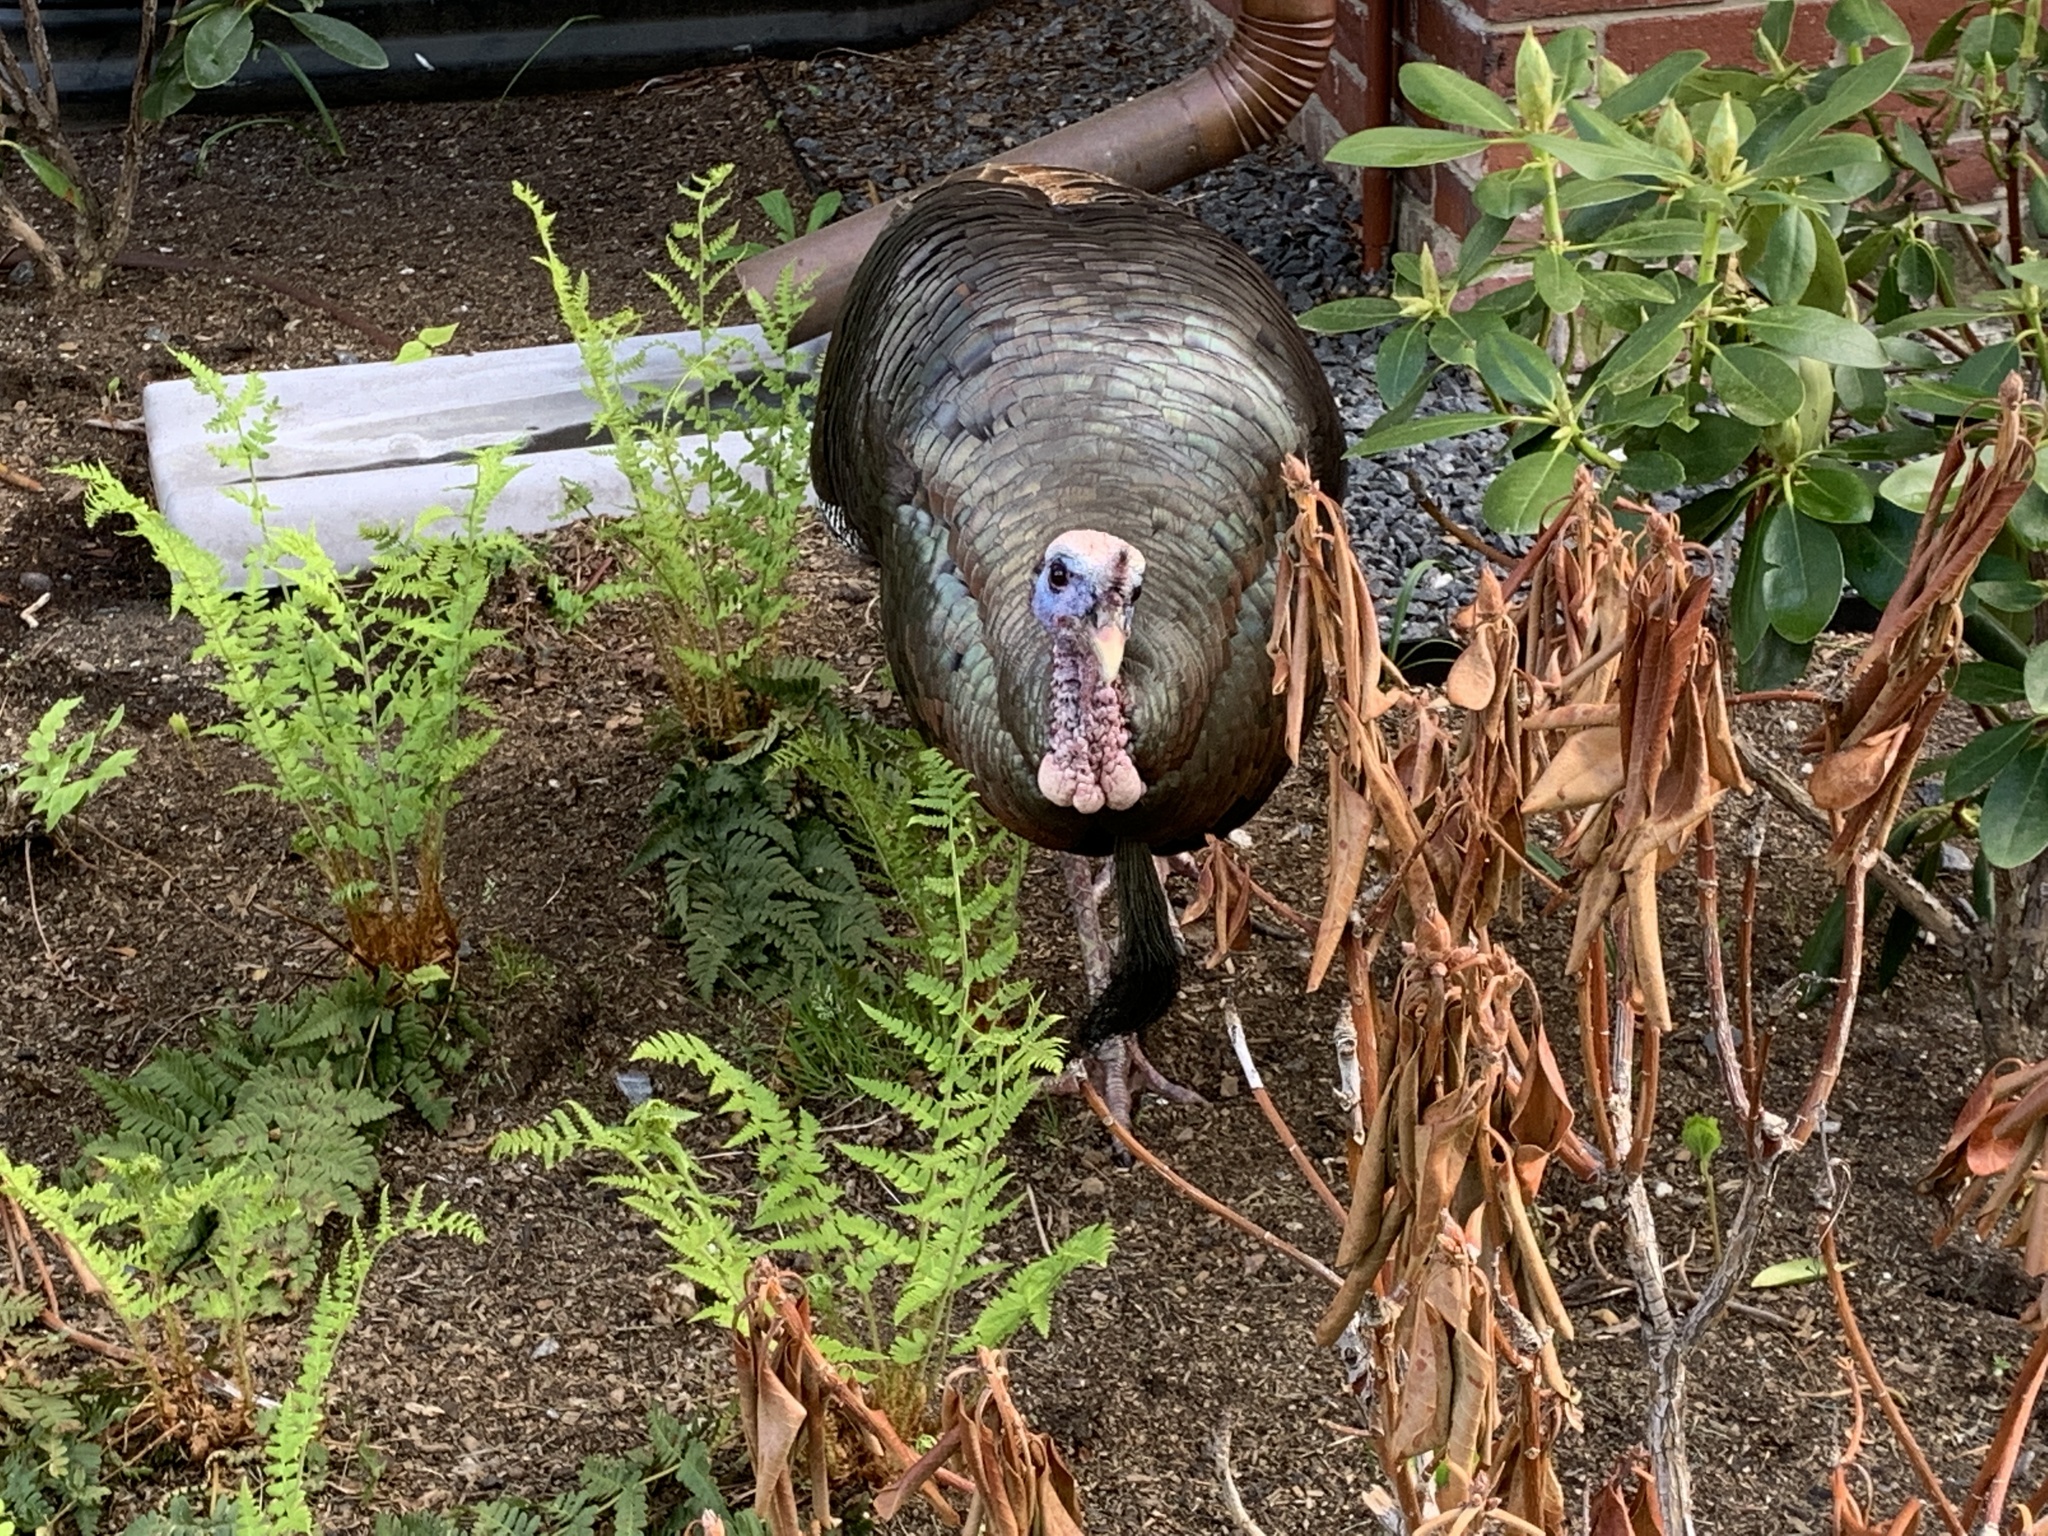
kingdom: Animalia
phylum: Chordata
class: Aves
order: Galliformes
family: Phasianidae
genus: Meleagris
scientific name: Meleagris gallopavo
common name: Wild turkey
